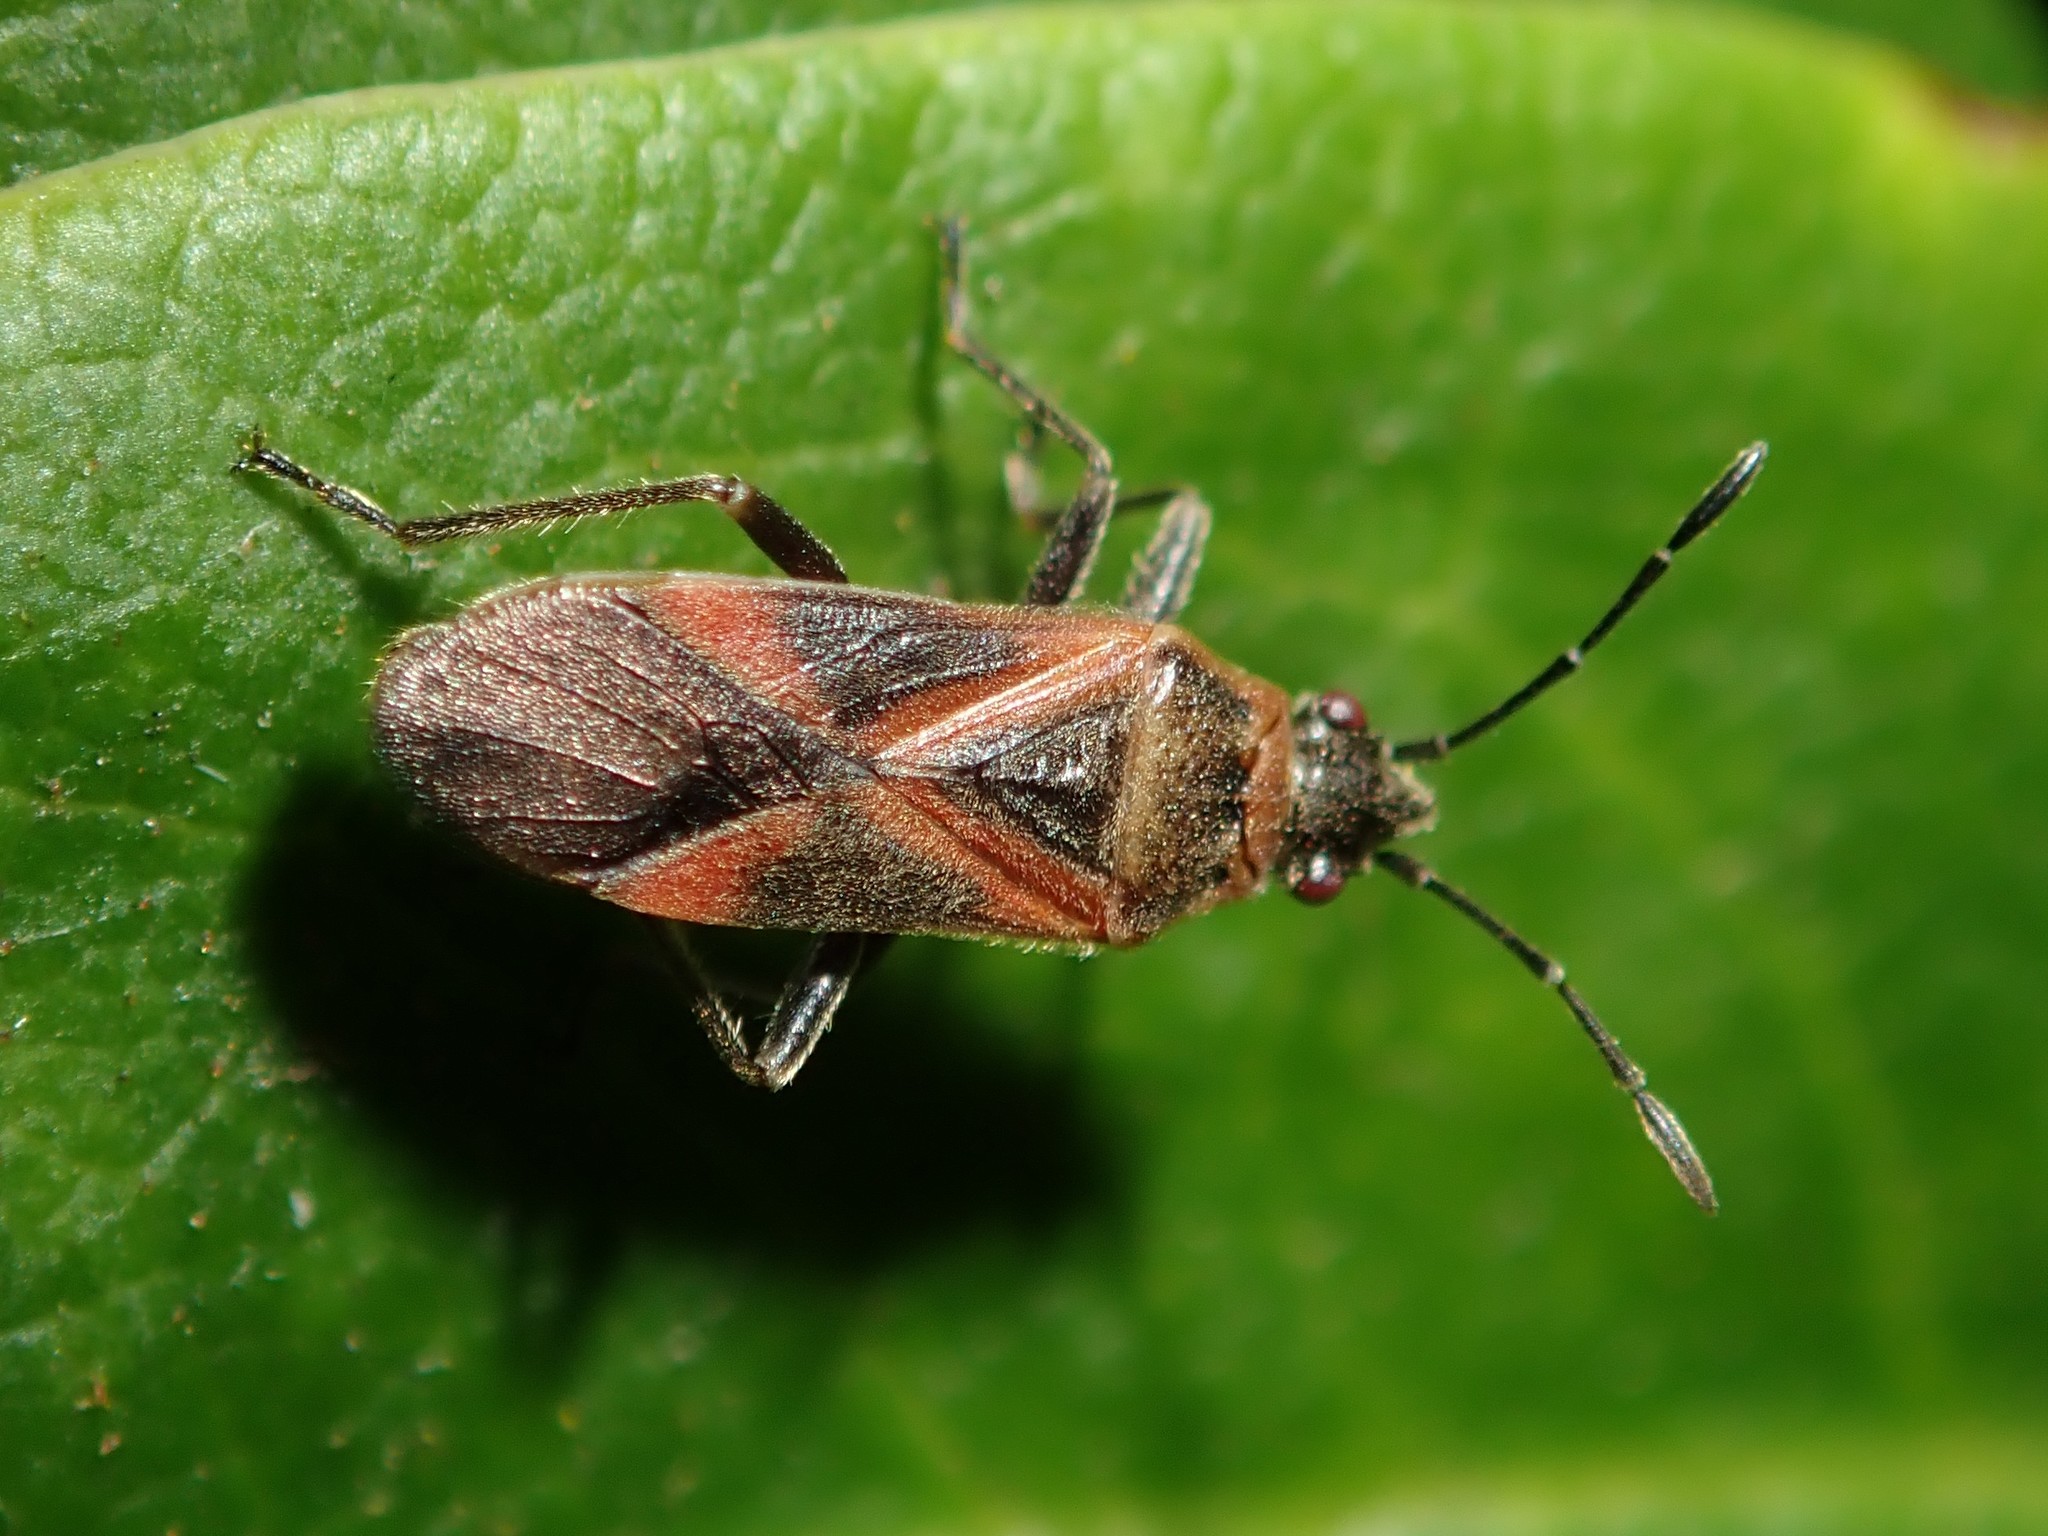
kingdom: Animalia
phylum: Arthropoda
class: Insecta
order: Hemiptera
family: Lygaeidae
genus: Arocatus
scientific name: Arocatus roeselii
